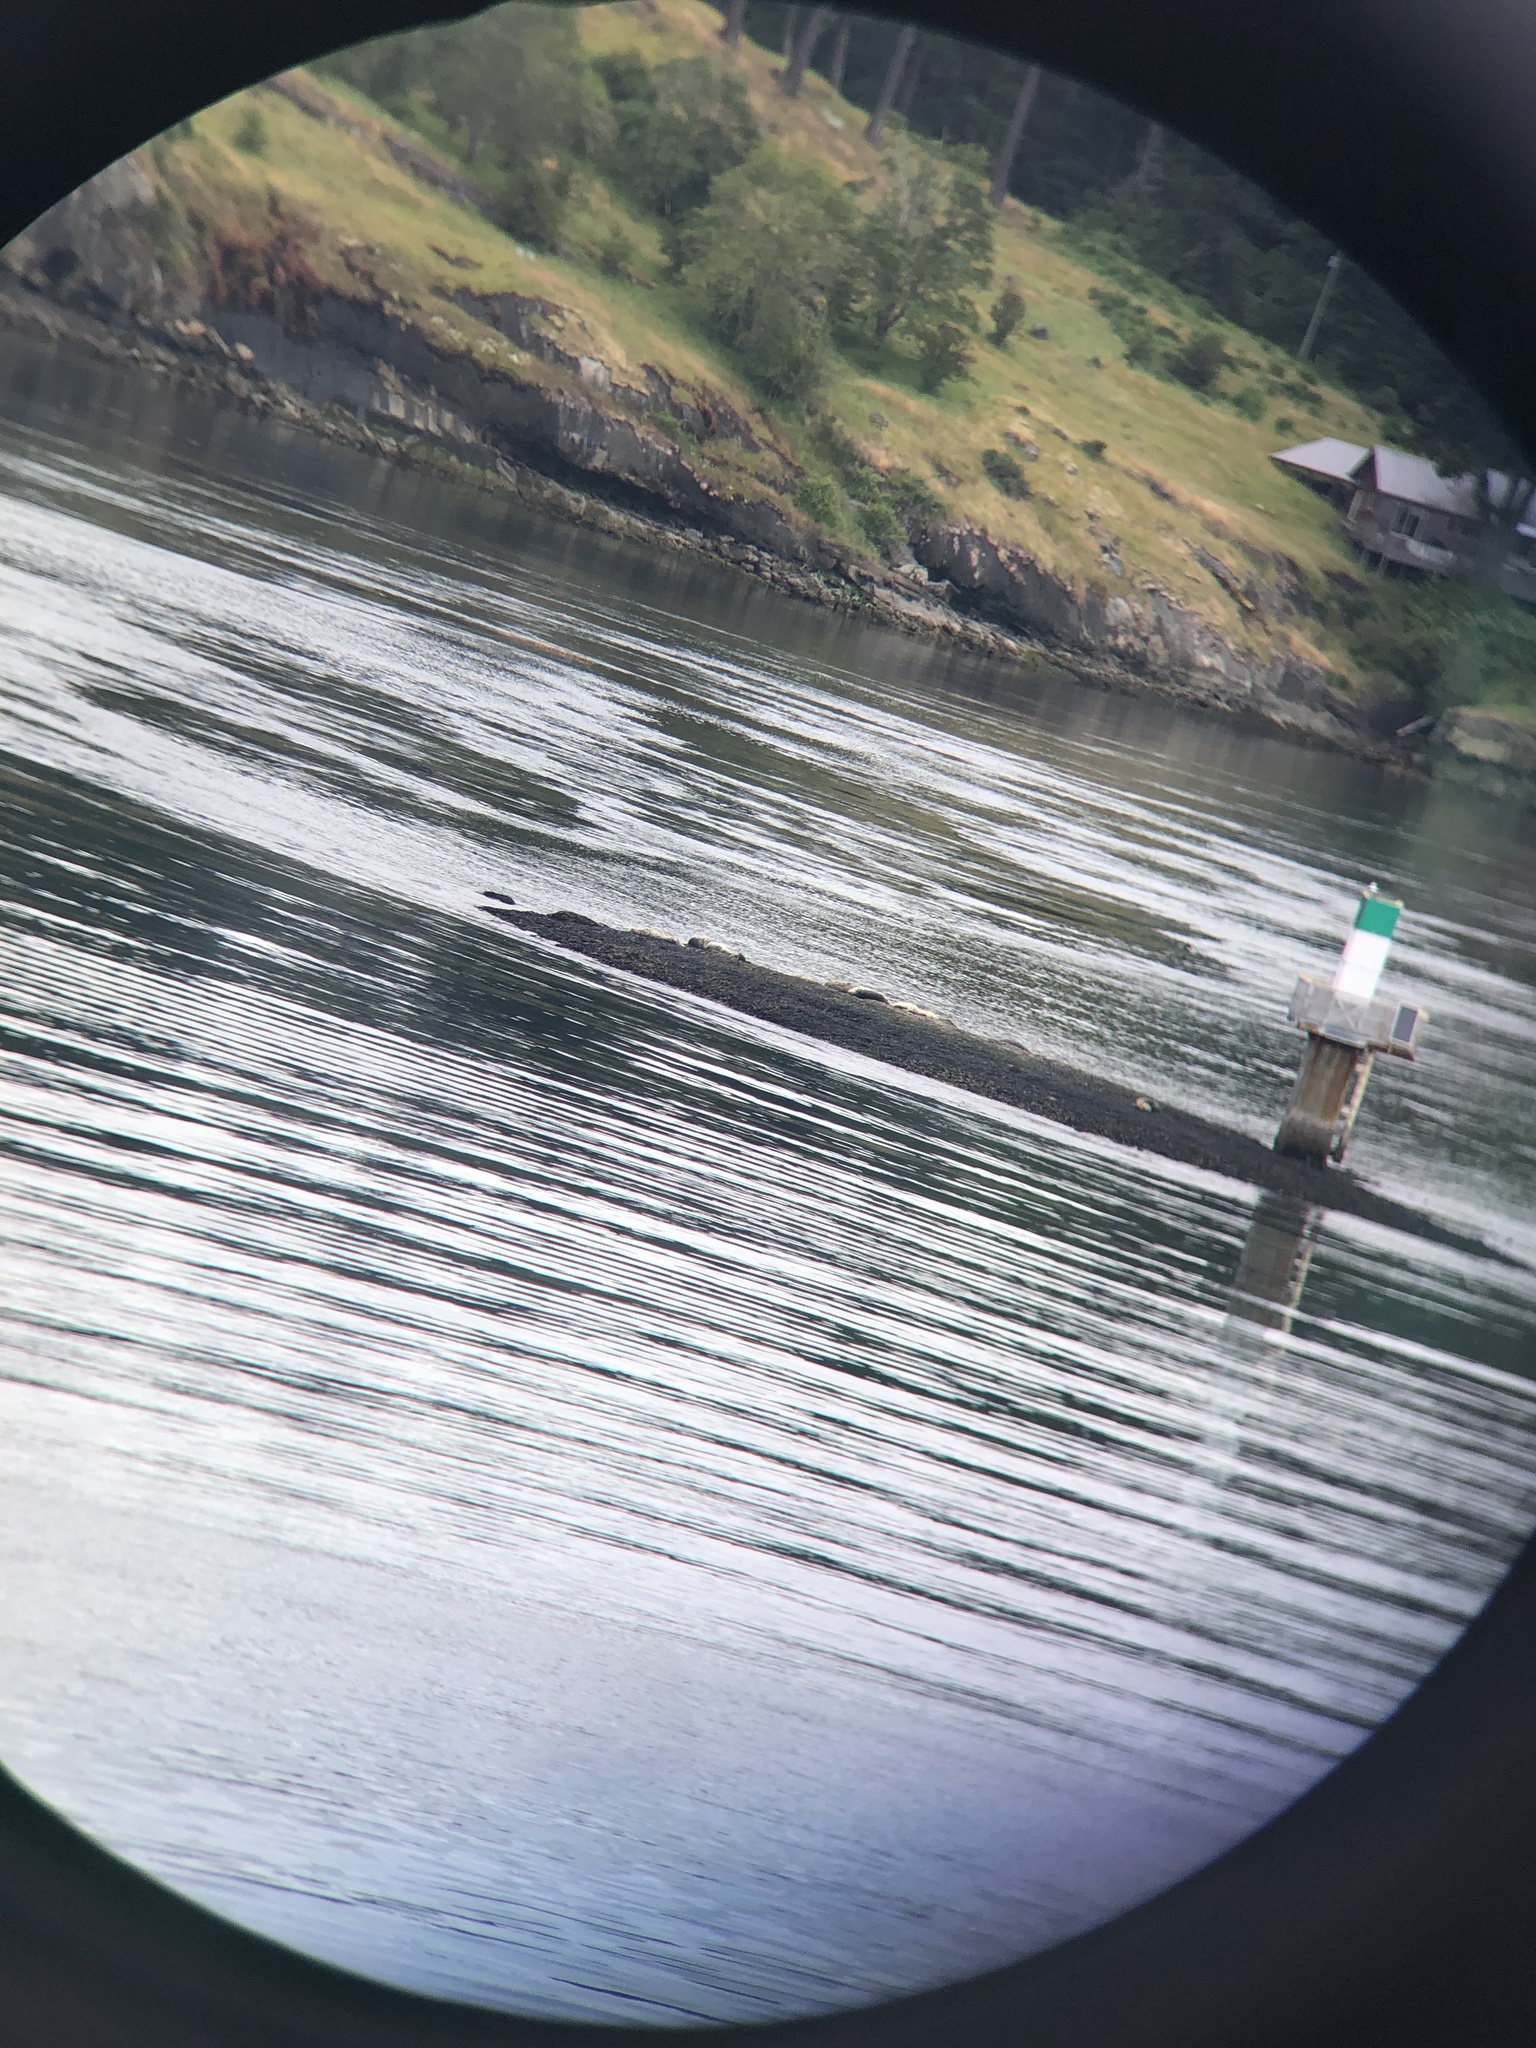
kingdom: Animalia
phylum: Chordata
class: Mammalia
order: Carnivora
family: Phocidae
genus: Phoca
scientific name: Phoca vitulina
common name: Harbor seal
